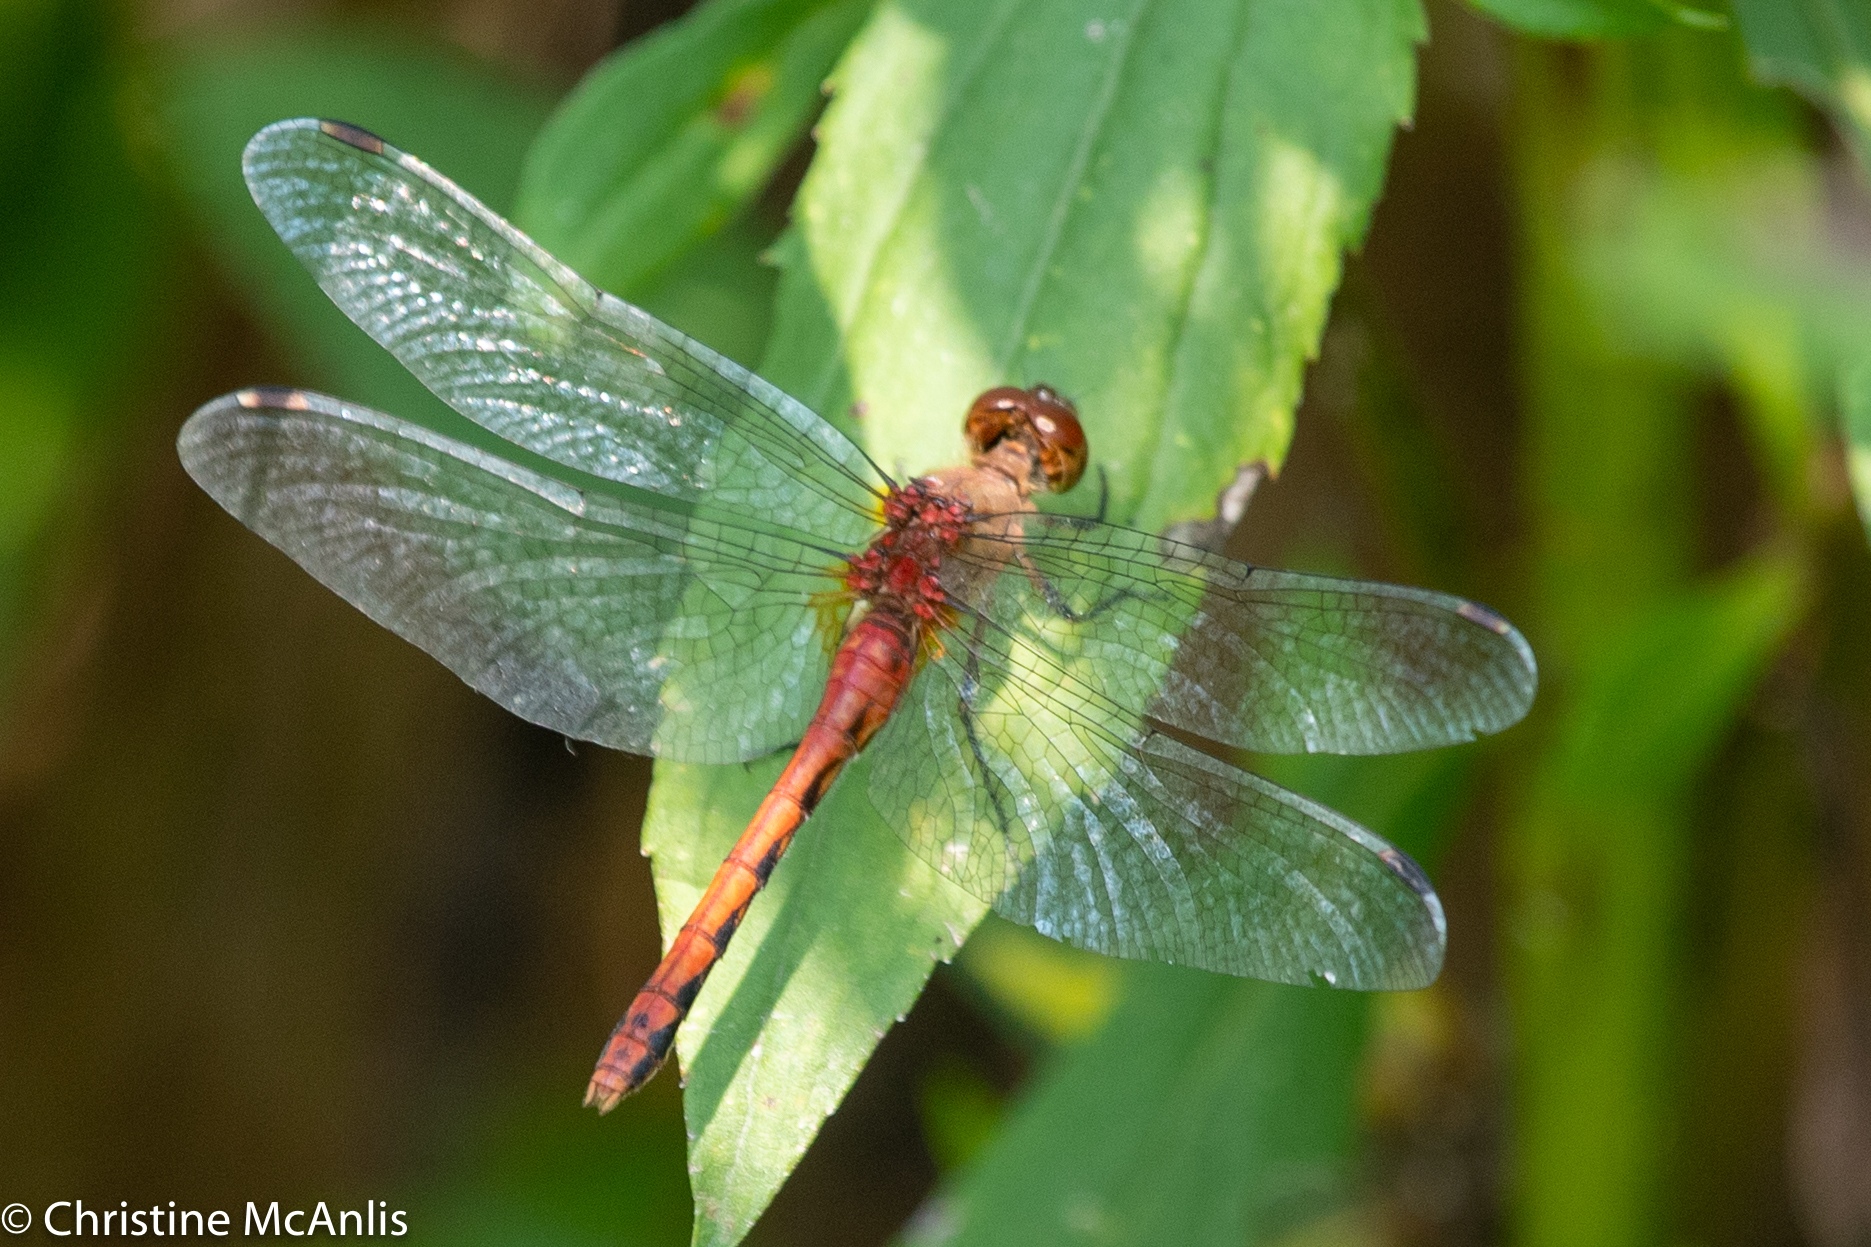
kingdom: Animalia
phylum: Arthropoda
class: Insecta
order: Odonata
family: Libellulidae
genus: Sympetrum
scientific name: Sympetrum
